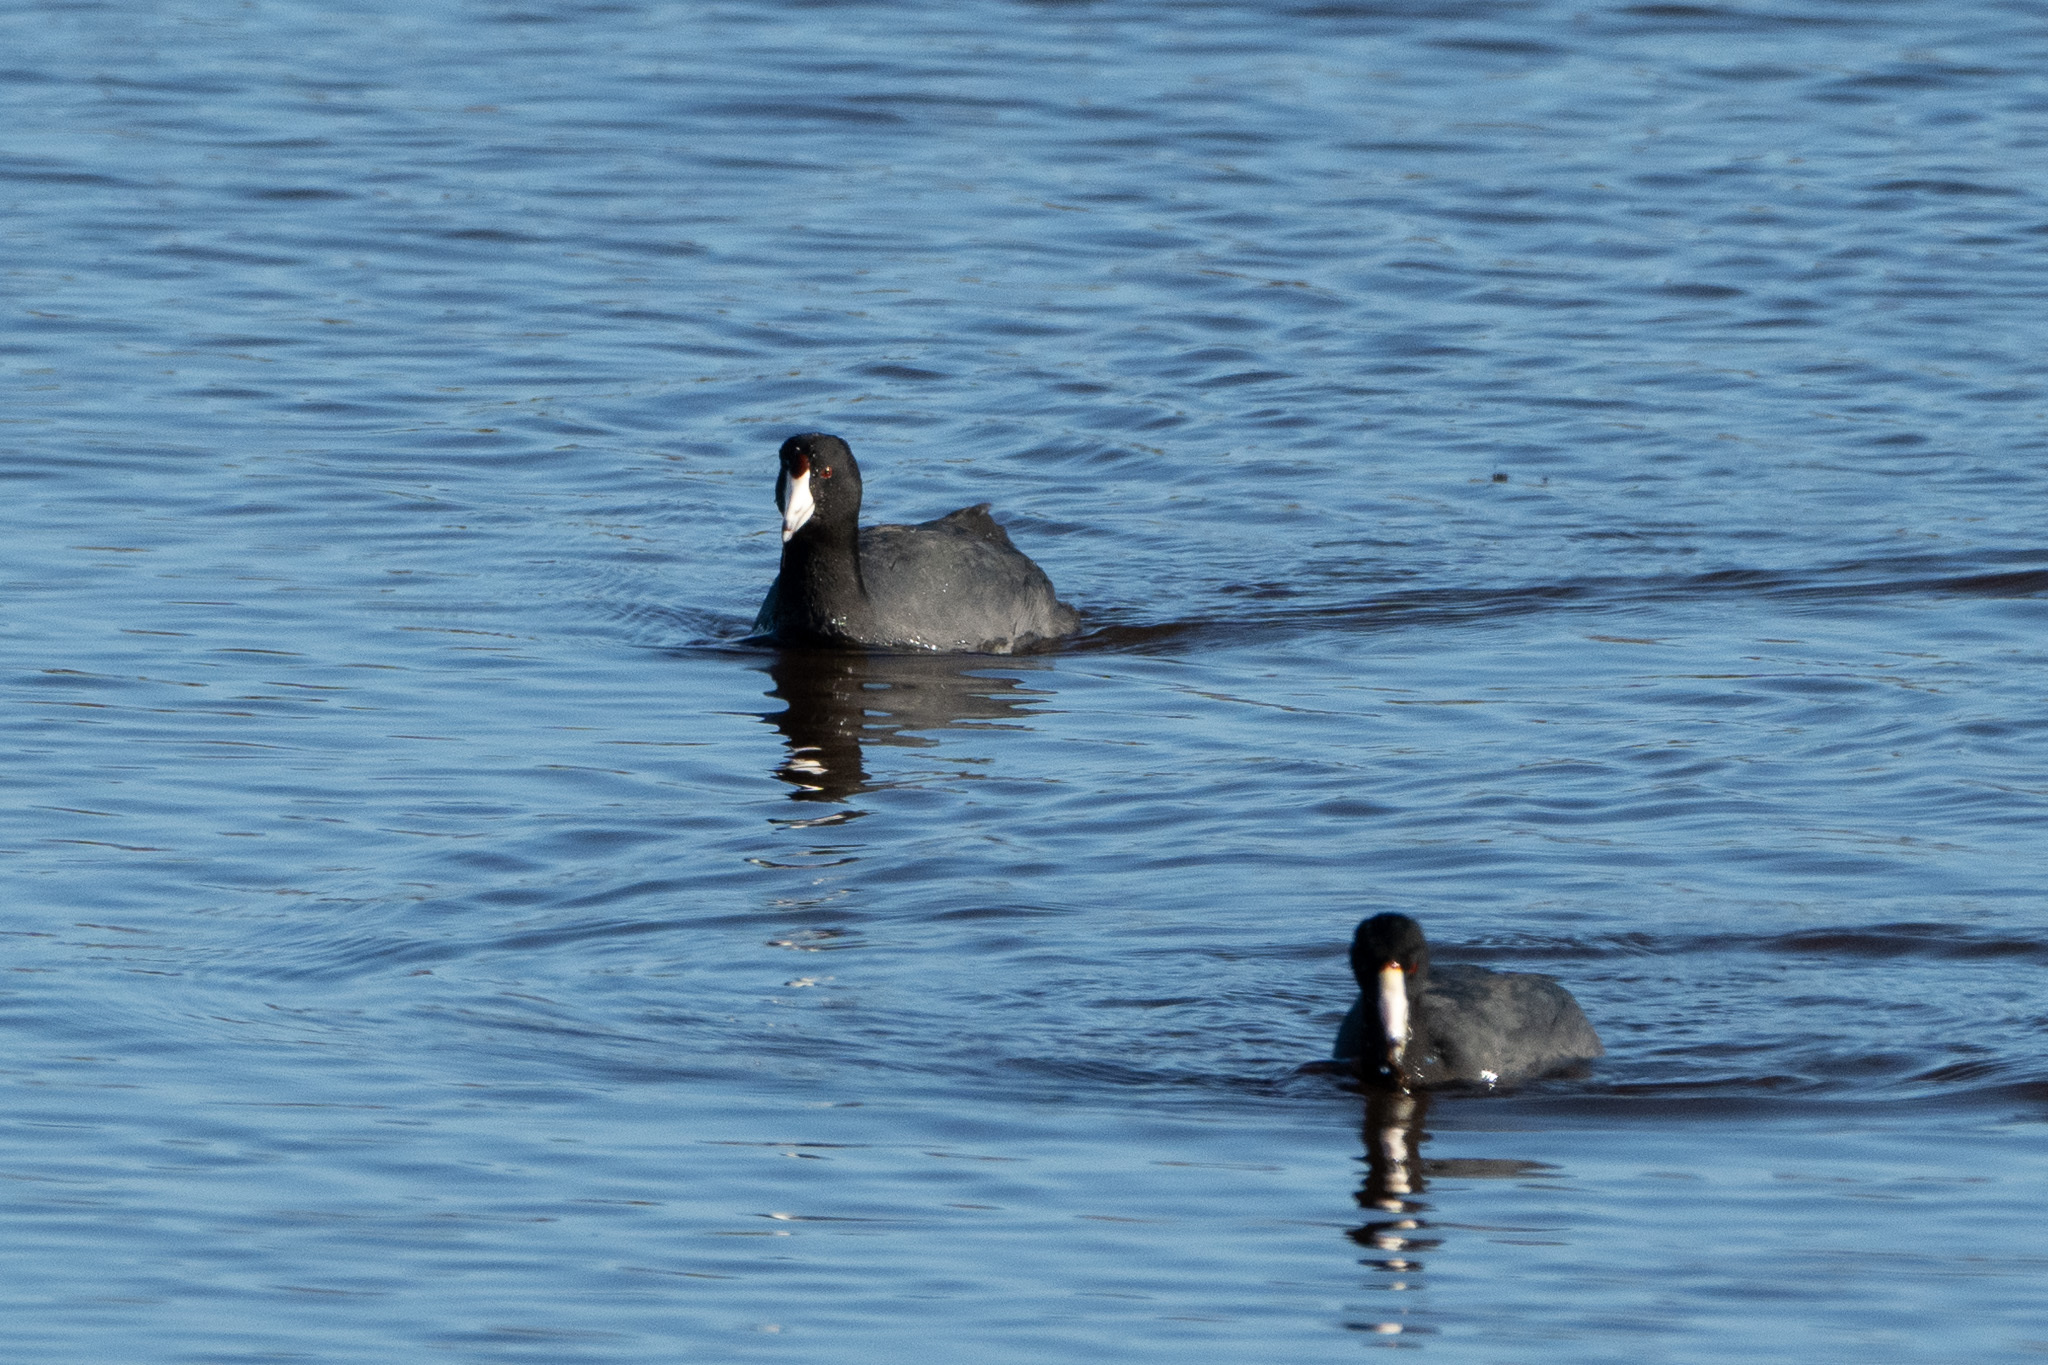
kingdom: Animalia
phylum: Chordata
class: Aves
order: Gruiformes
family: Rallidae
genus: Fulica
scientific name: Fulica americana
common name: American coot
